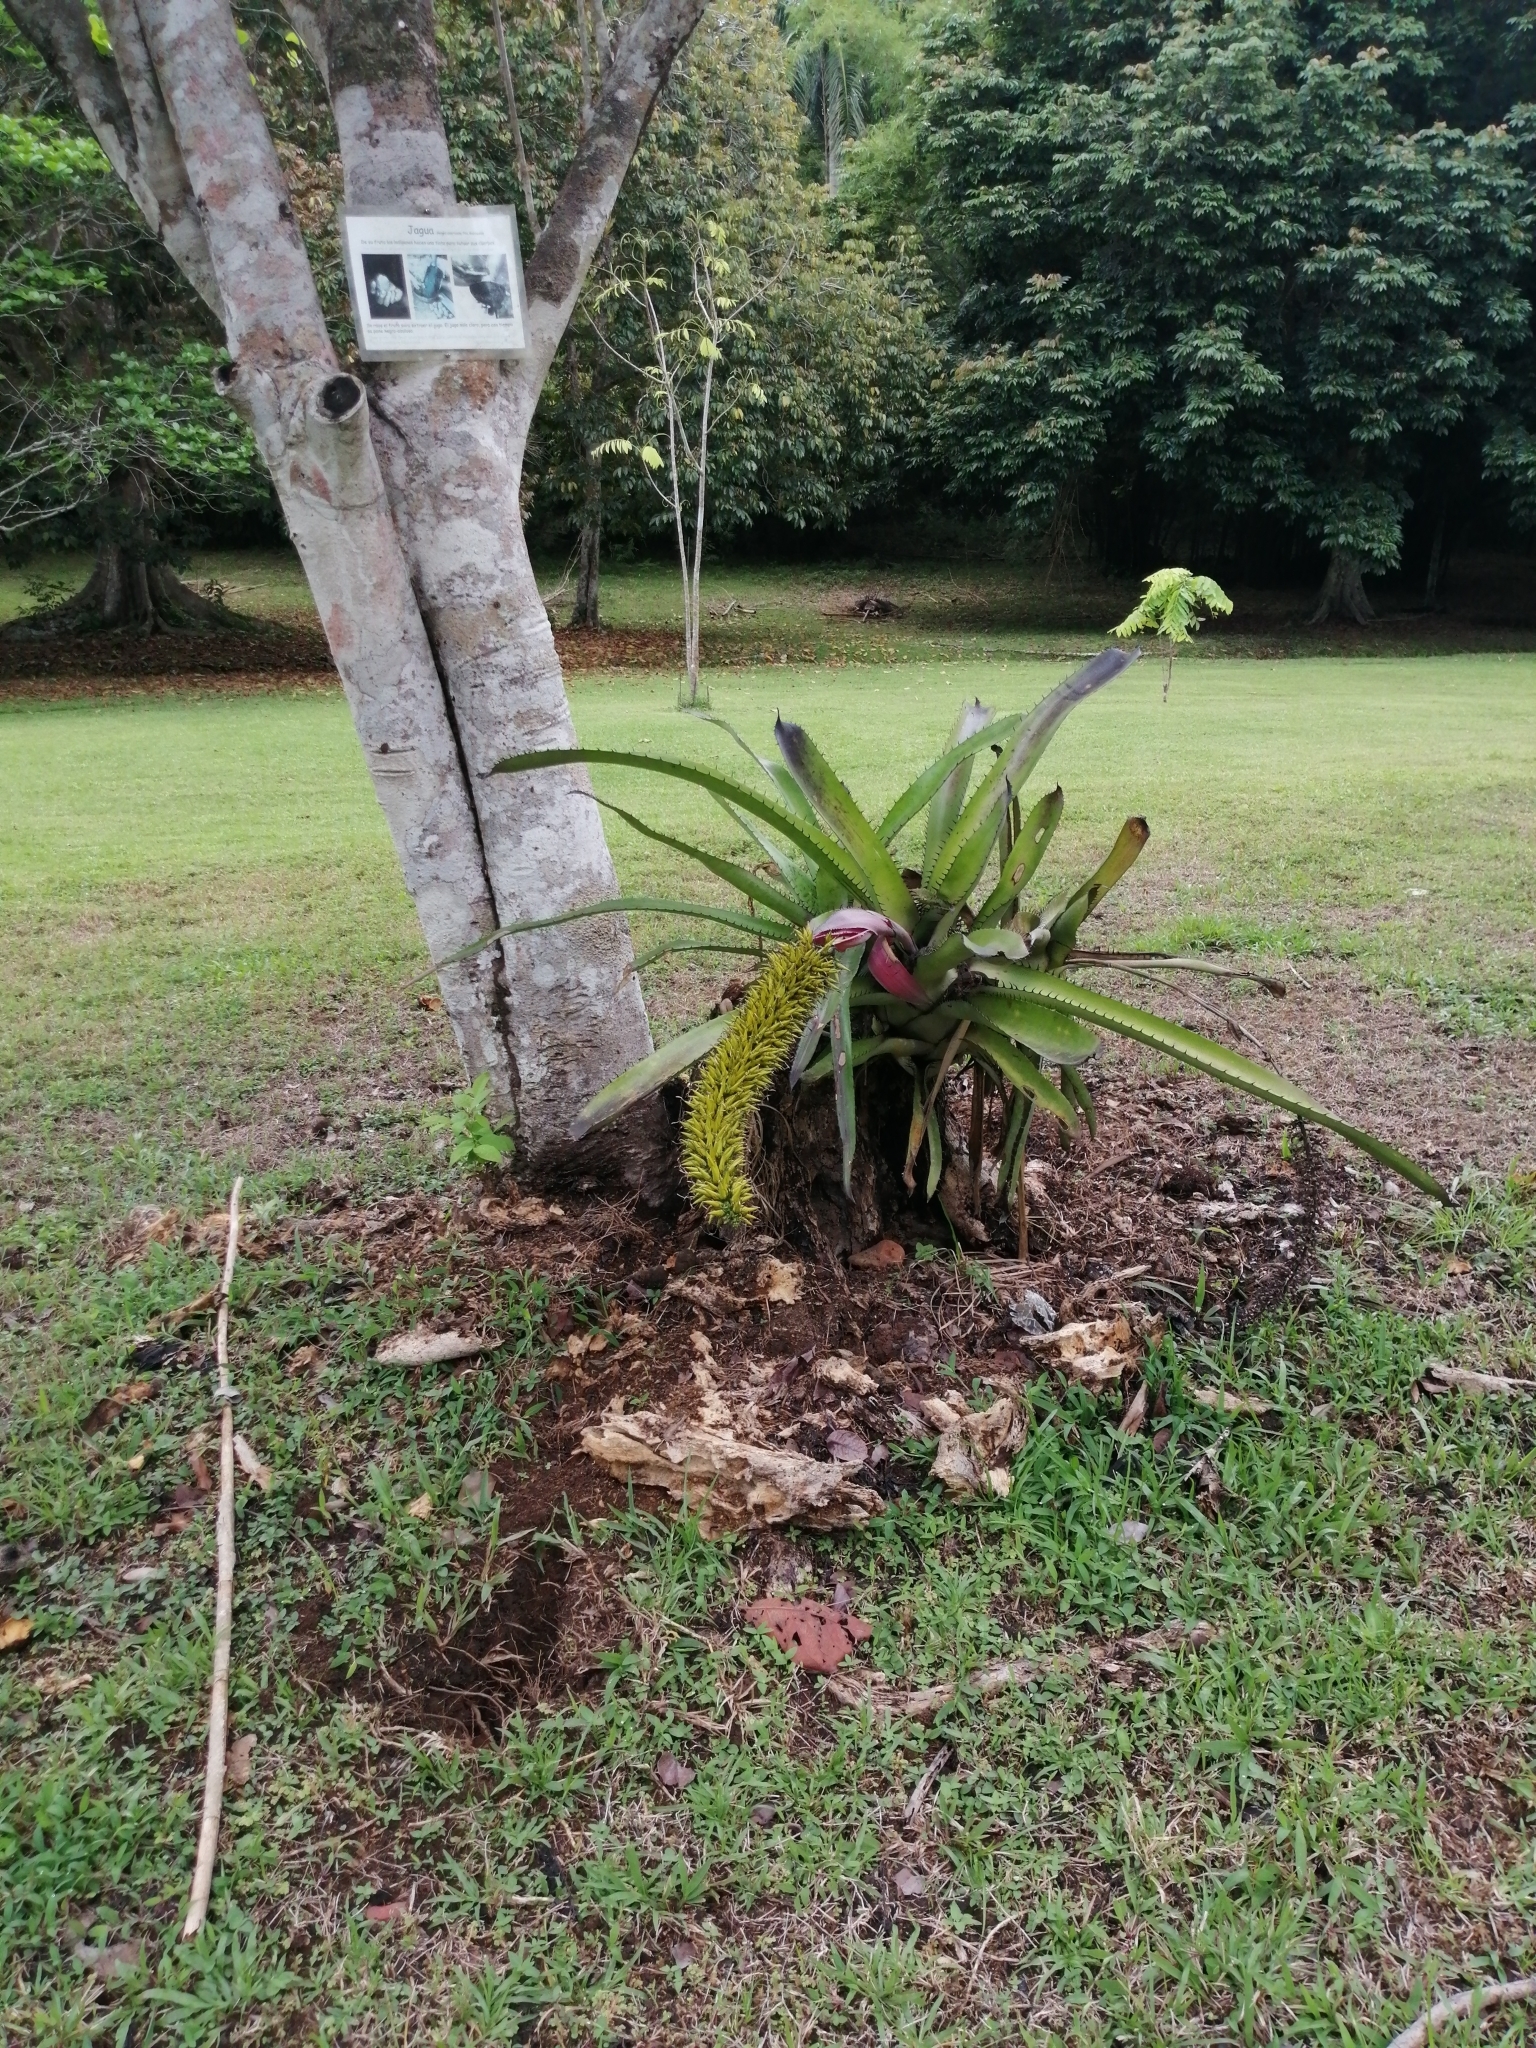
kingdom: Plantae
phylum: Tracheophyta
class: Liliopsida
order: Poales
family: Bromeliaceae
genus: Aechmea
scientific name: Aechmea setigera
